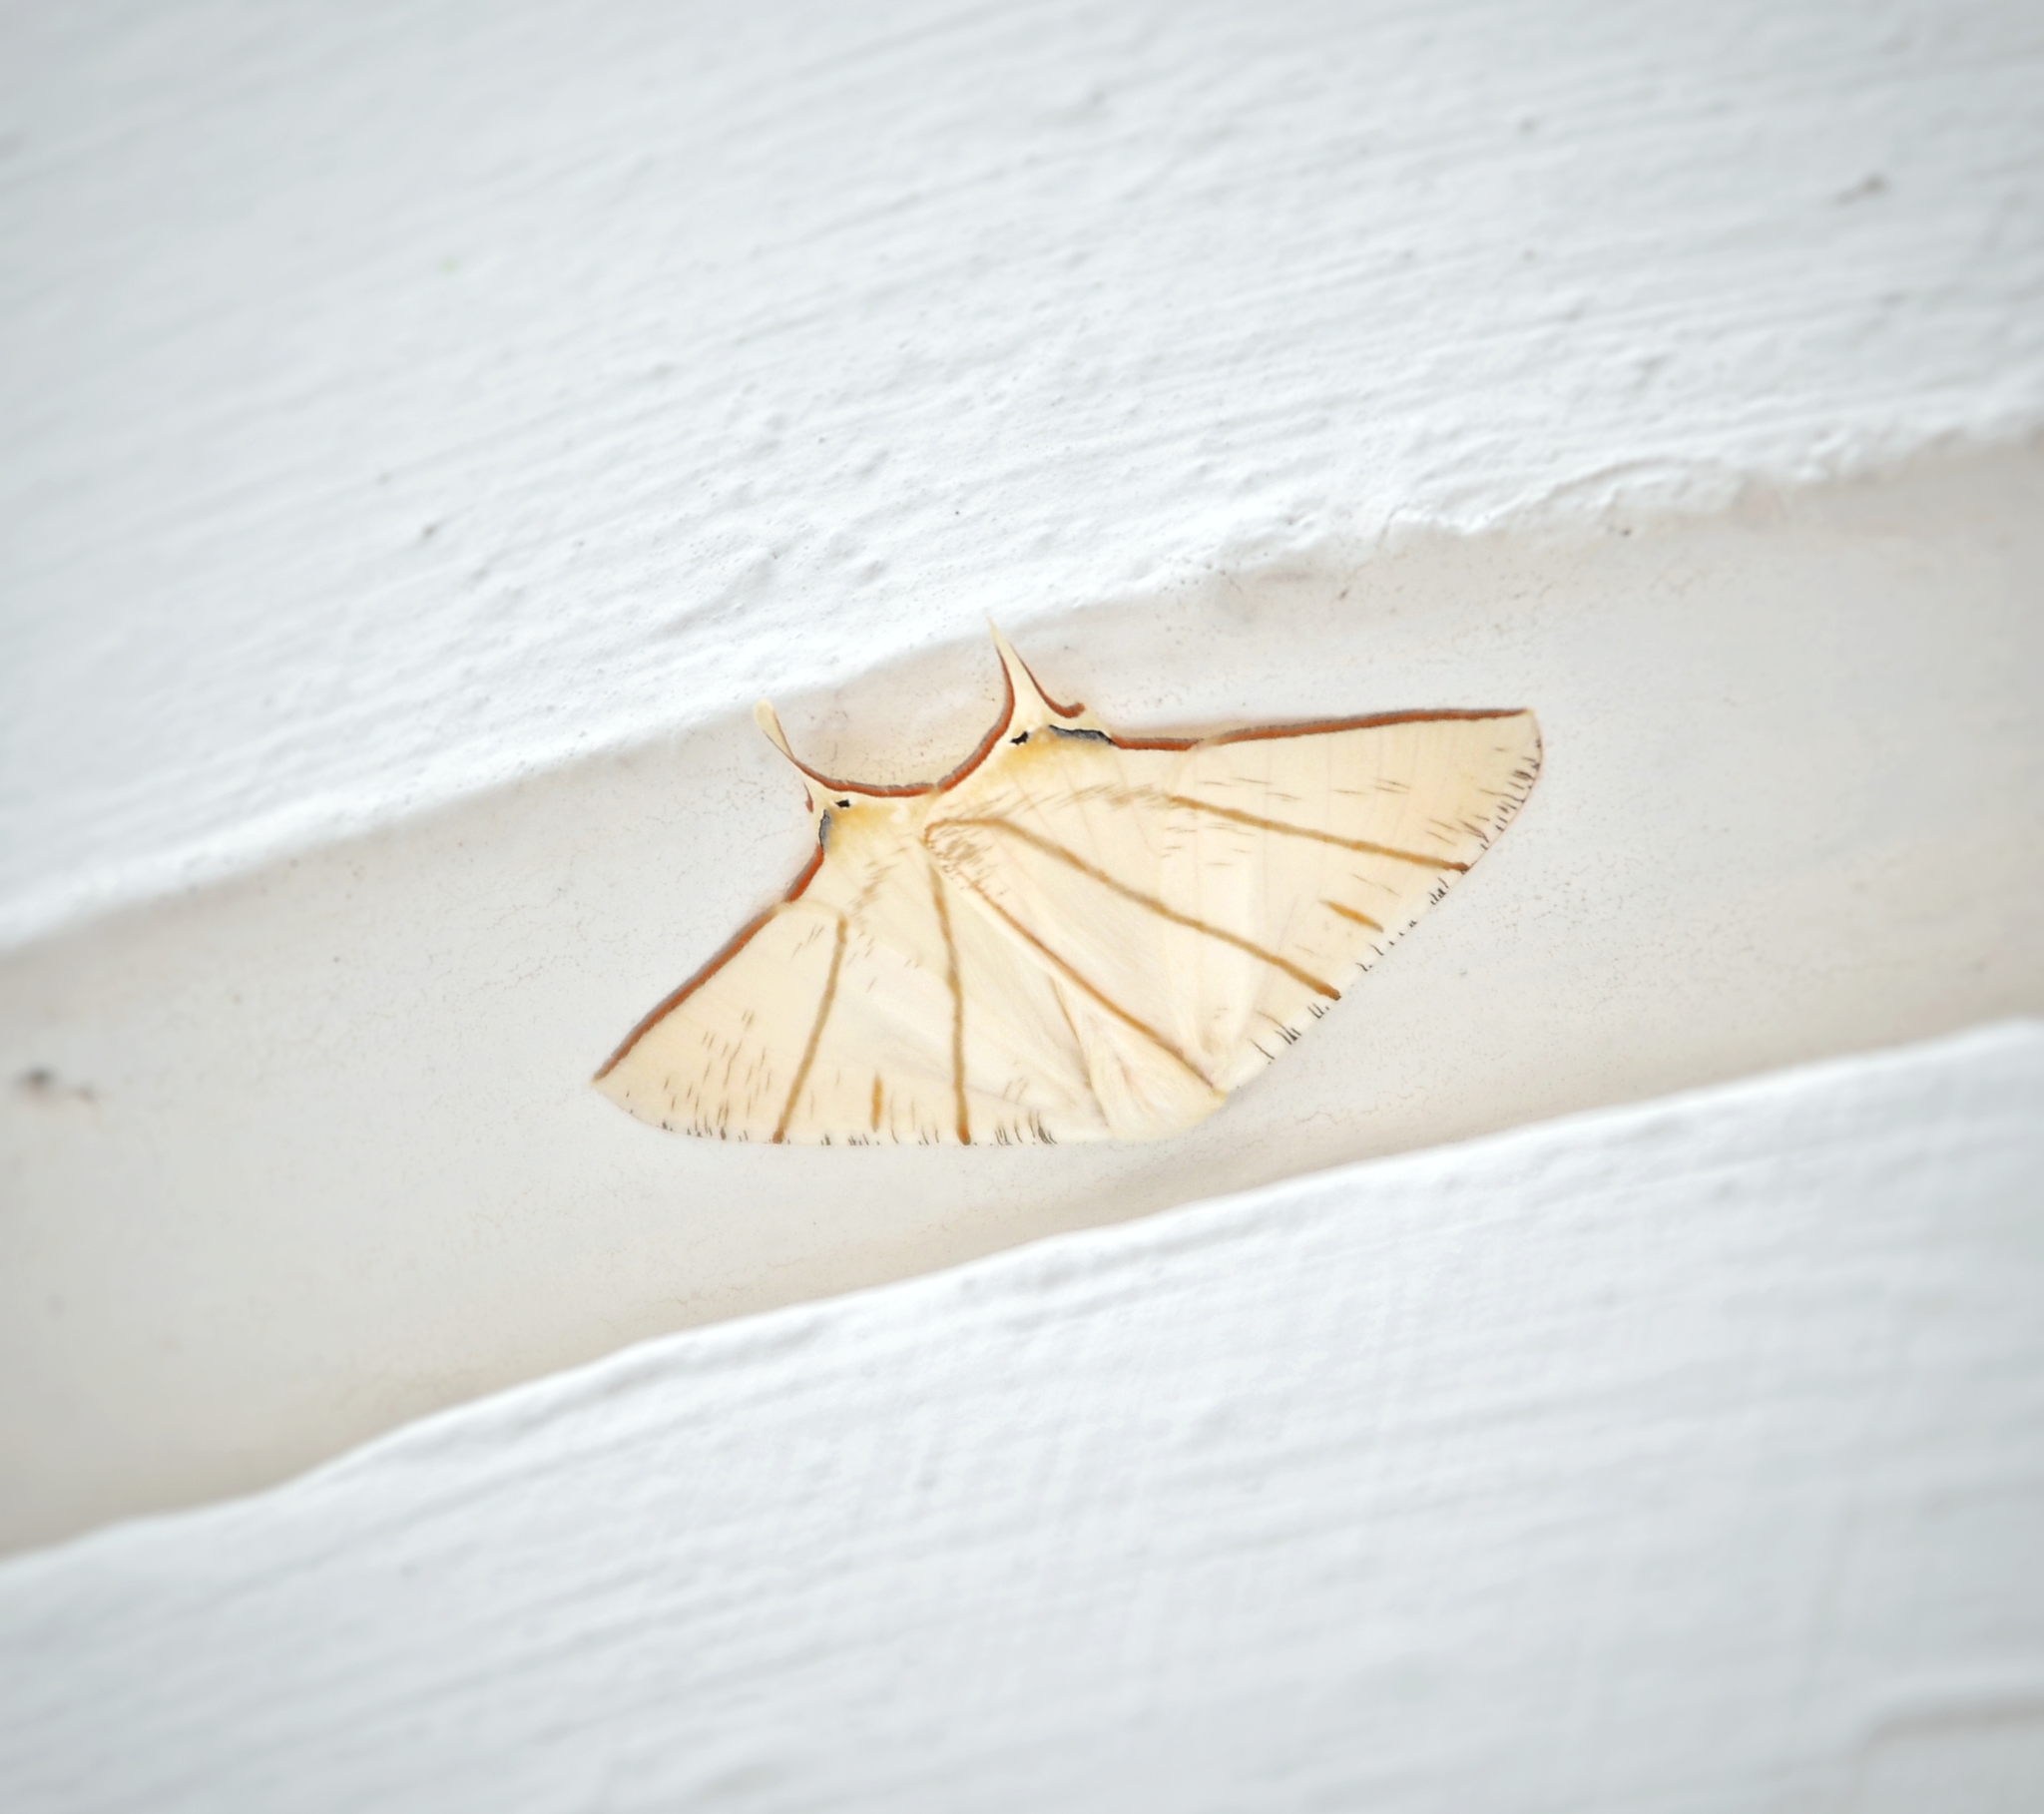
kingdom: Animalia
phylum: Arthropoda
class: Insecta
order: Lepidoptera
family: Geometridae
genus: Ourapteryx
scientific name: Ourapteryx clara
